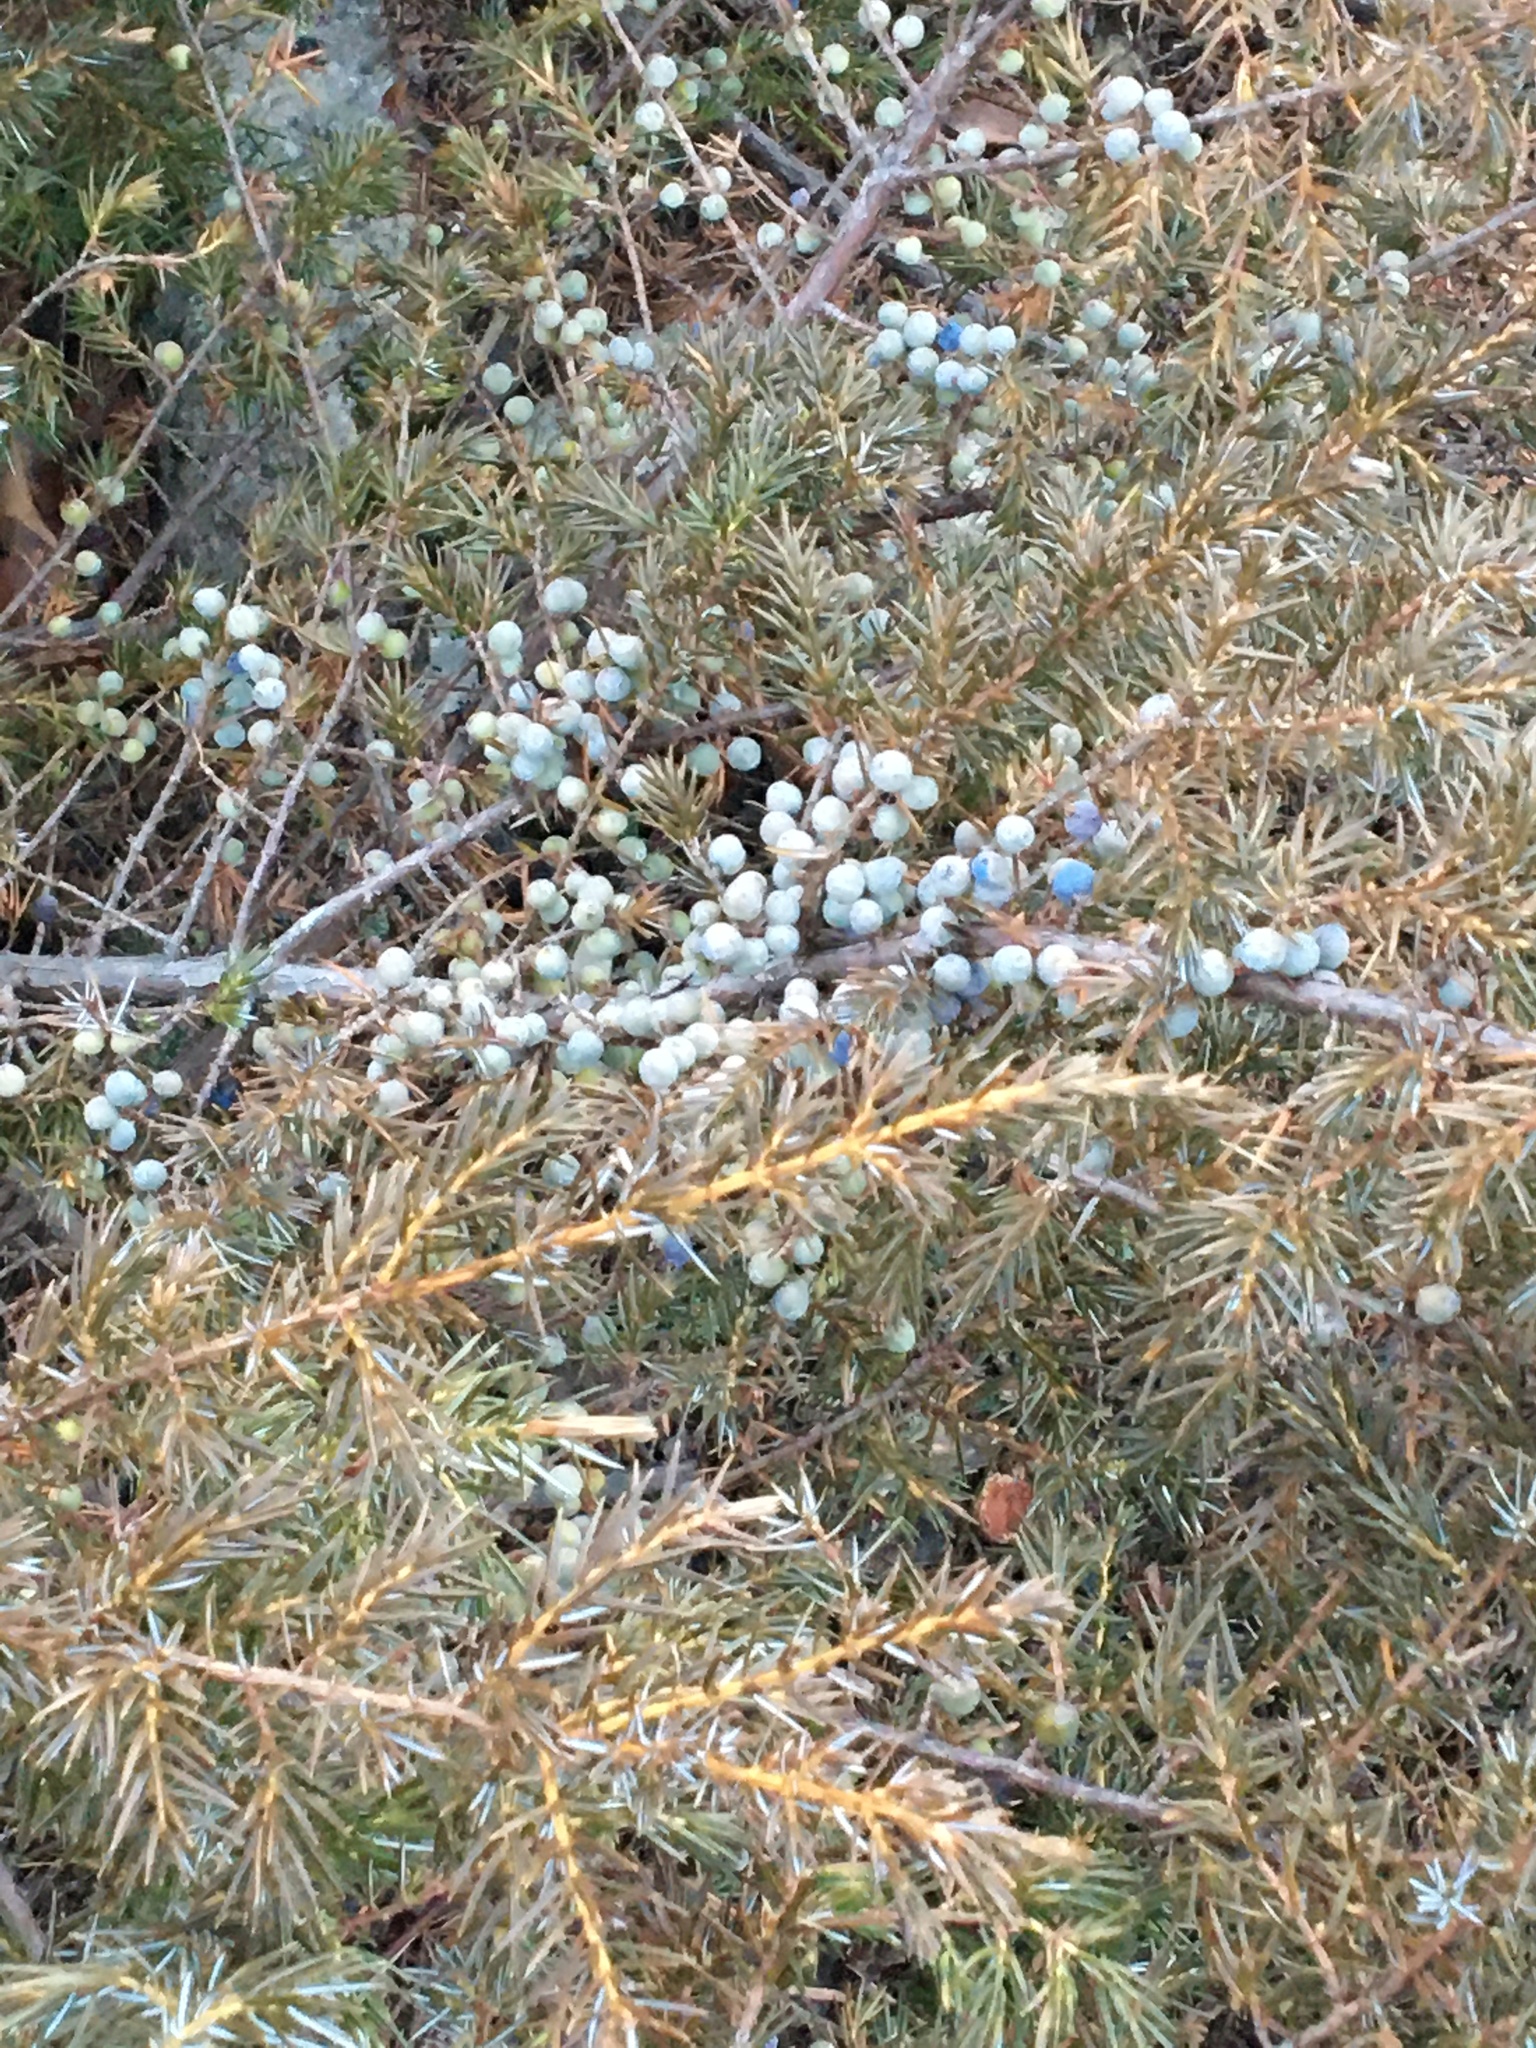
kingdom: Plantae
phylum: Tracheophyta
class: Pinopsida
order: Pinales
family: Cupressaceae
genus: Juniperus
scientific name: Juniperus communis
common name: Common juniper
